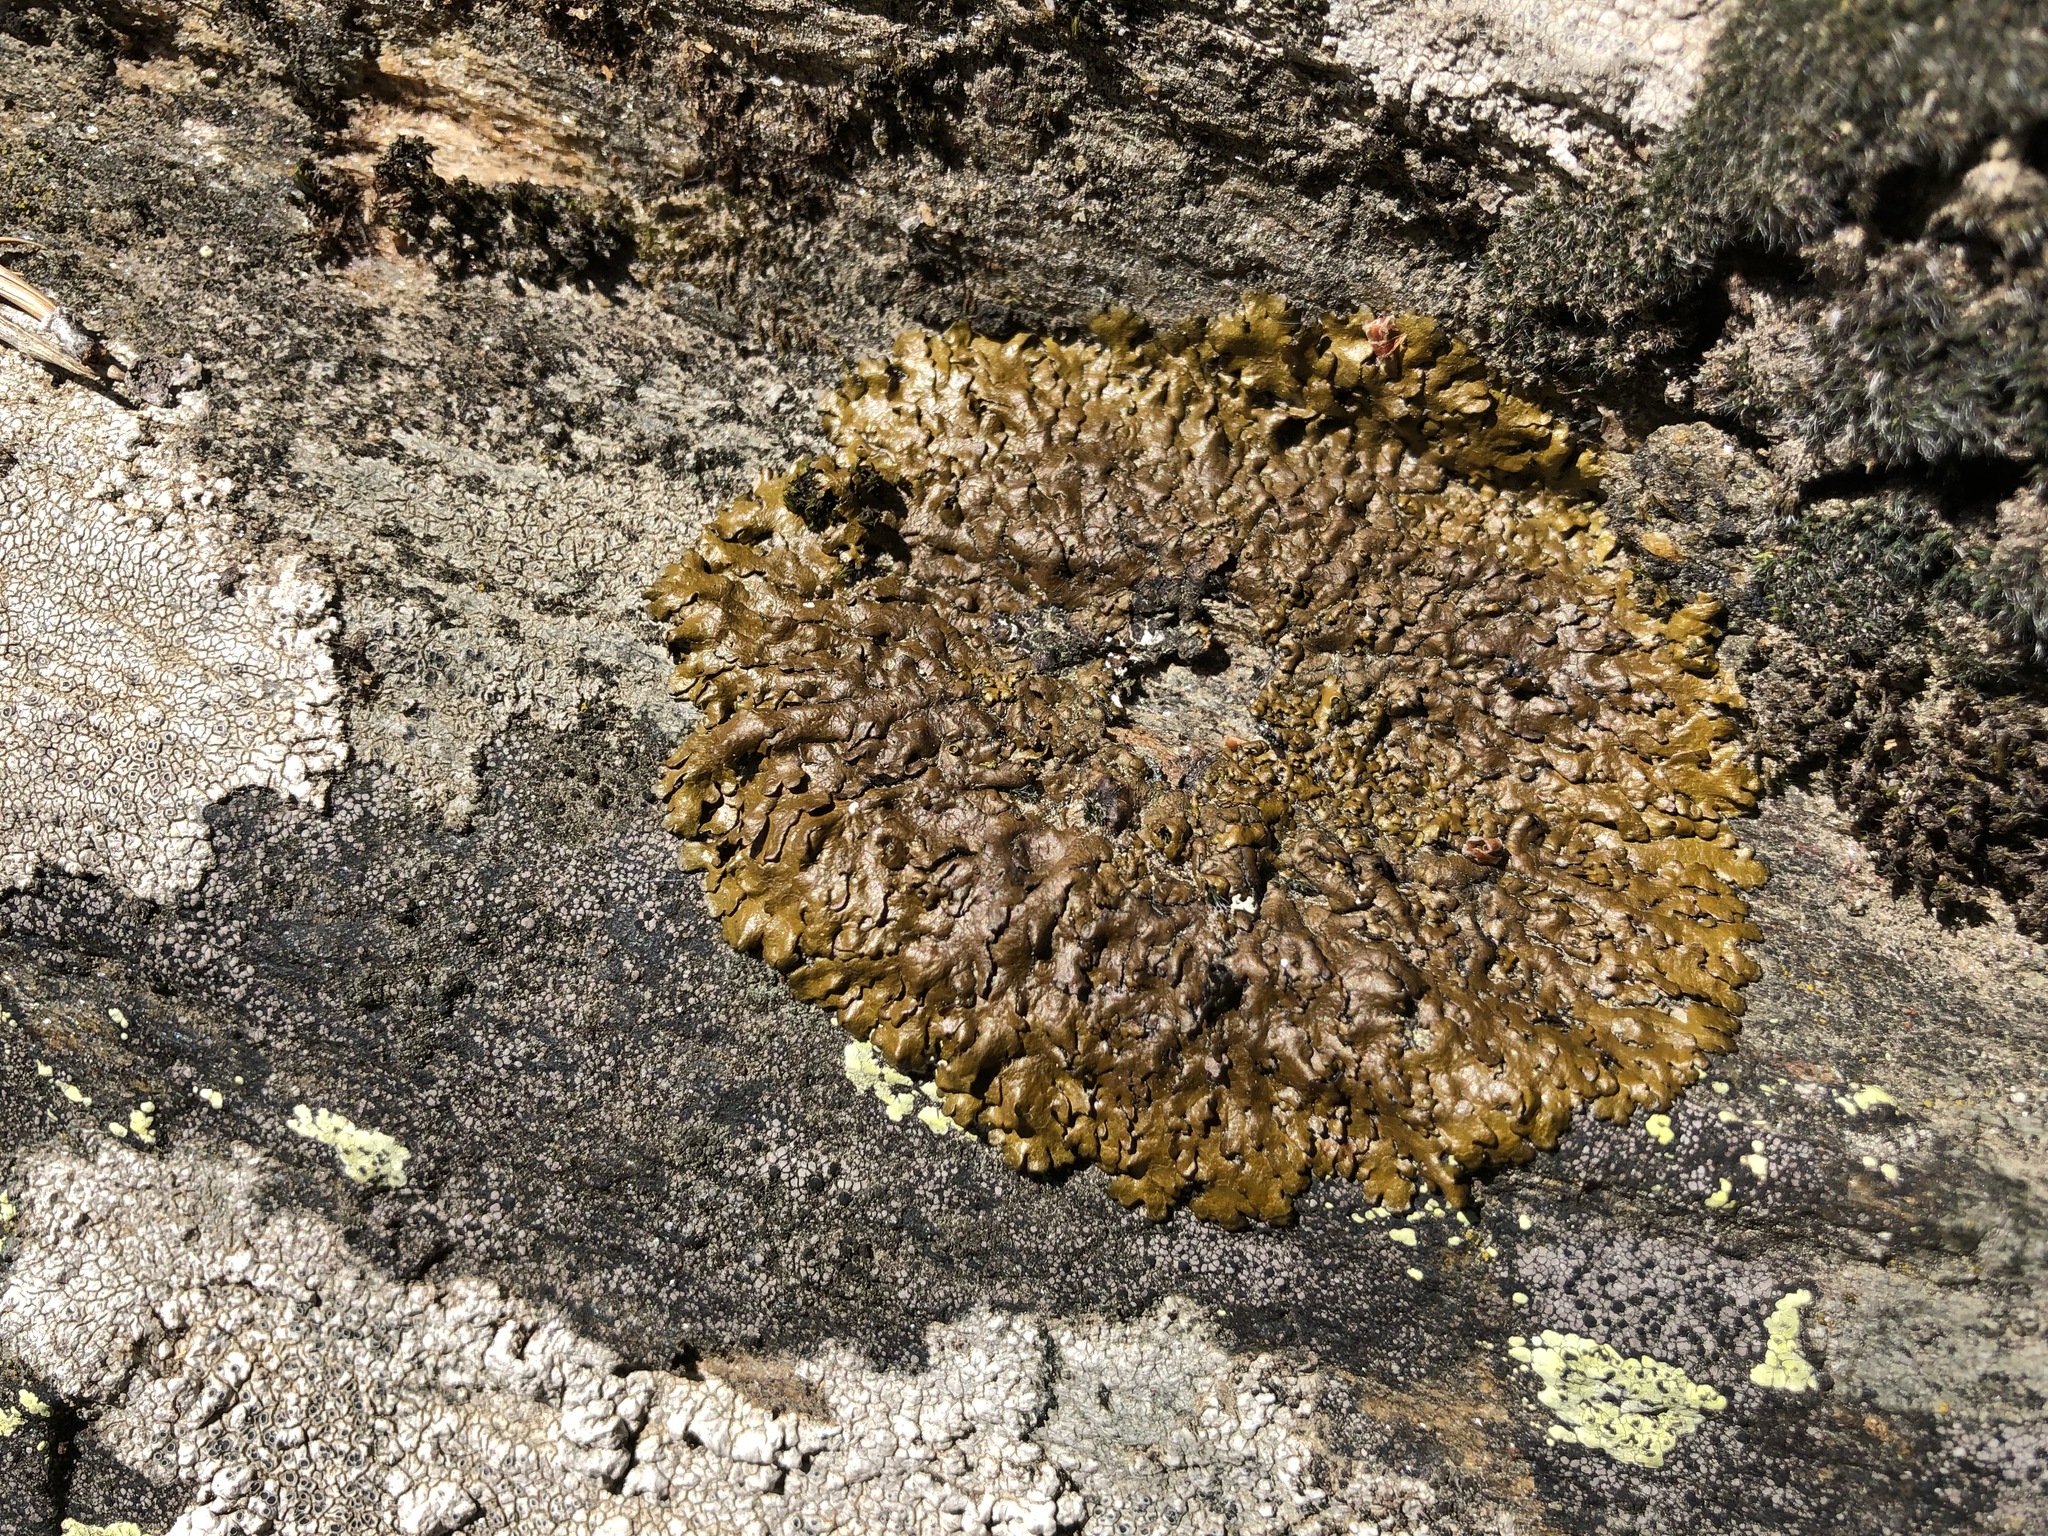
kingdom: Fungi
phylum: Ascomycota
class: Lecanoromycetes
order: Lecanorales
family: Parmeliaceae
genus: Xanthoparmelia
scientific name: Xanthoparmelia pulla
